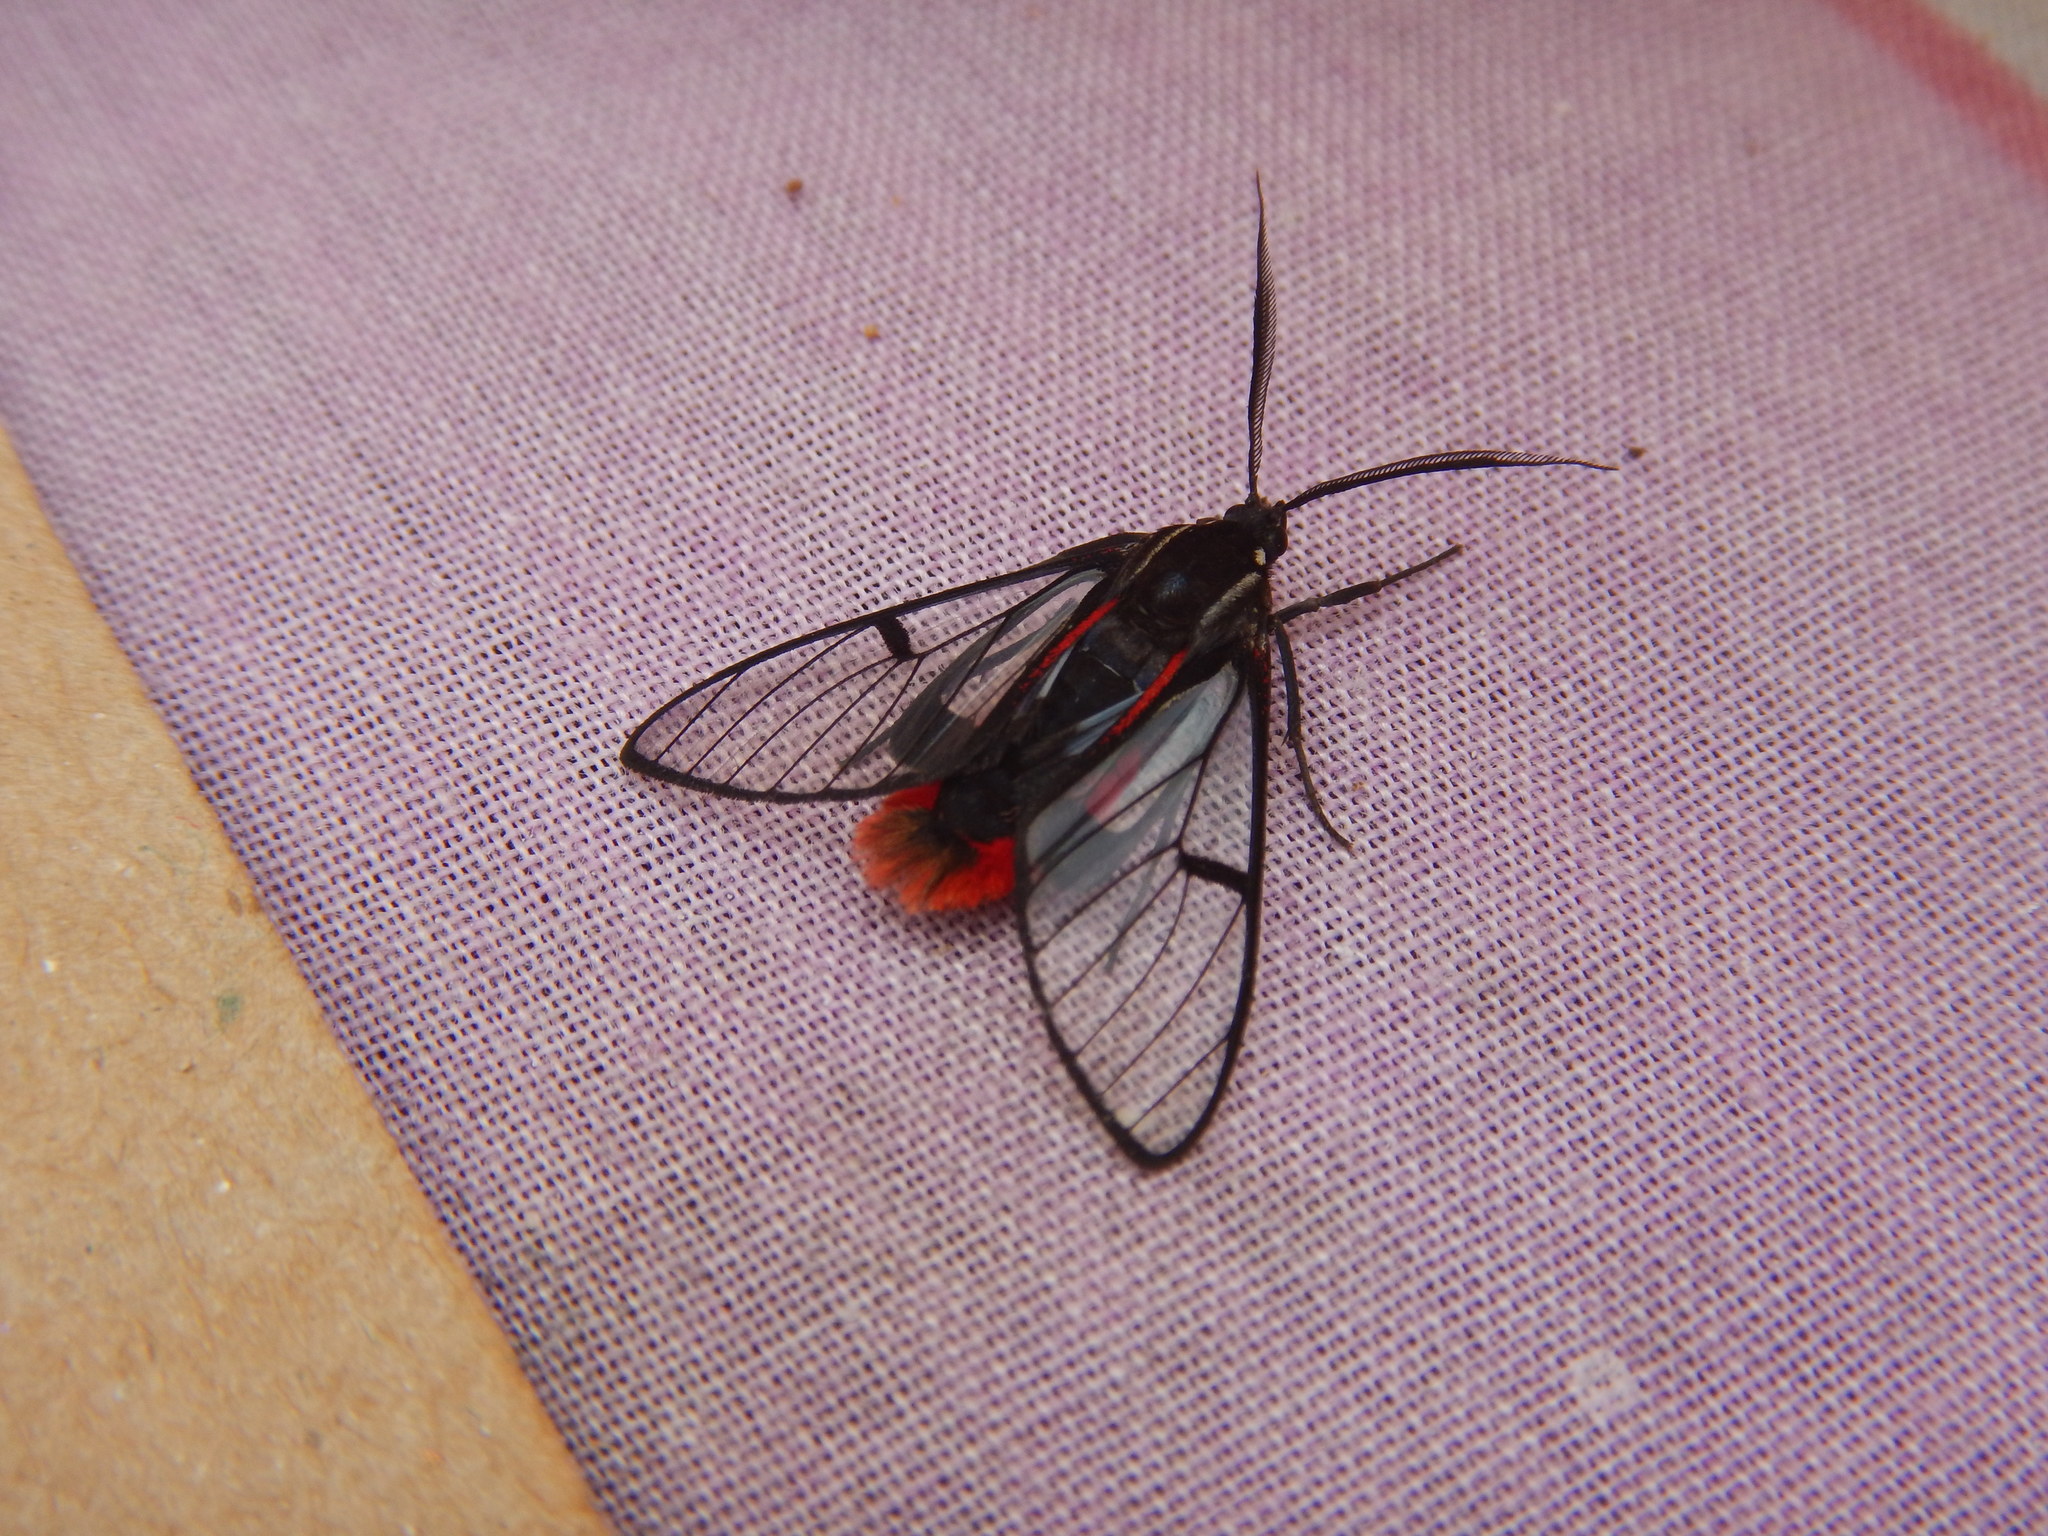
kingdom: Animalia
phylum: Arthropoda
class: Insecta
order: Lepidoptera
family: Erebidae
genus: Dinia
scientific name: Dinia eagrus
